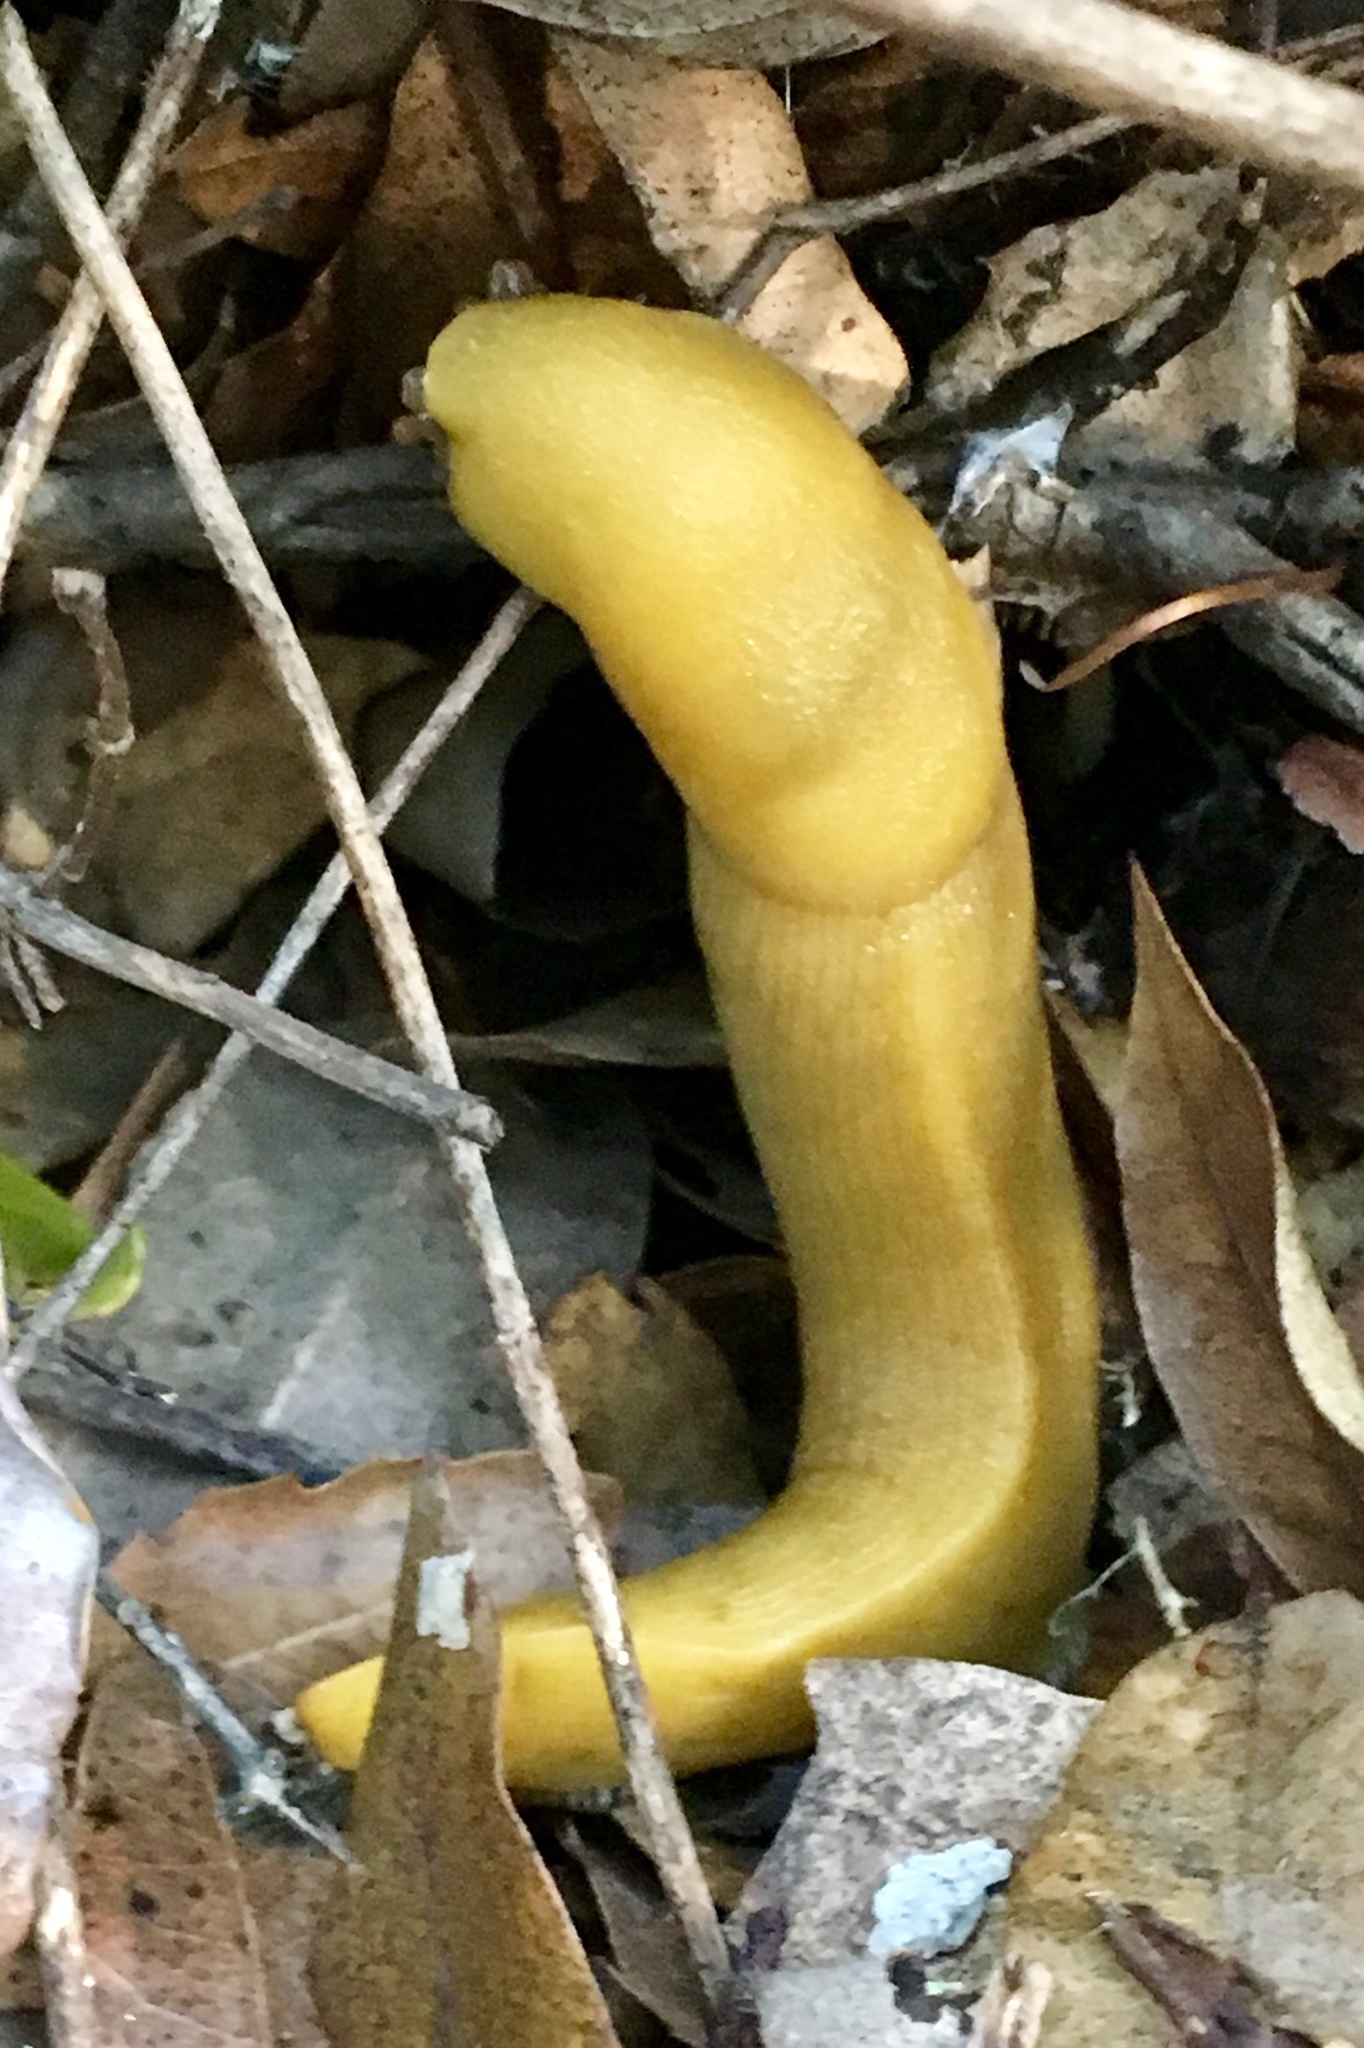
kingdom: Animalia
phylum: Mollusca
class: Gastropoda
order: Stylommatophora
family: Ariolimacidae
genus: Ariolimax
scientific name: Ariolimax stramineus
